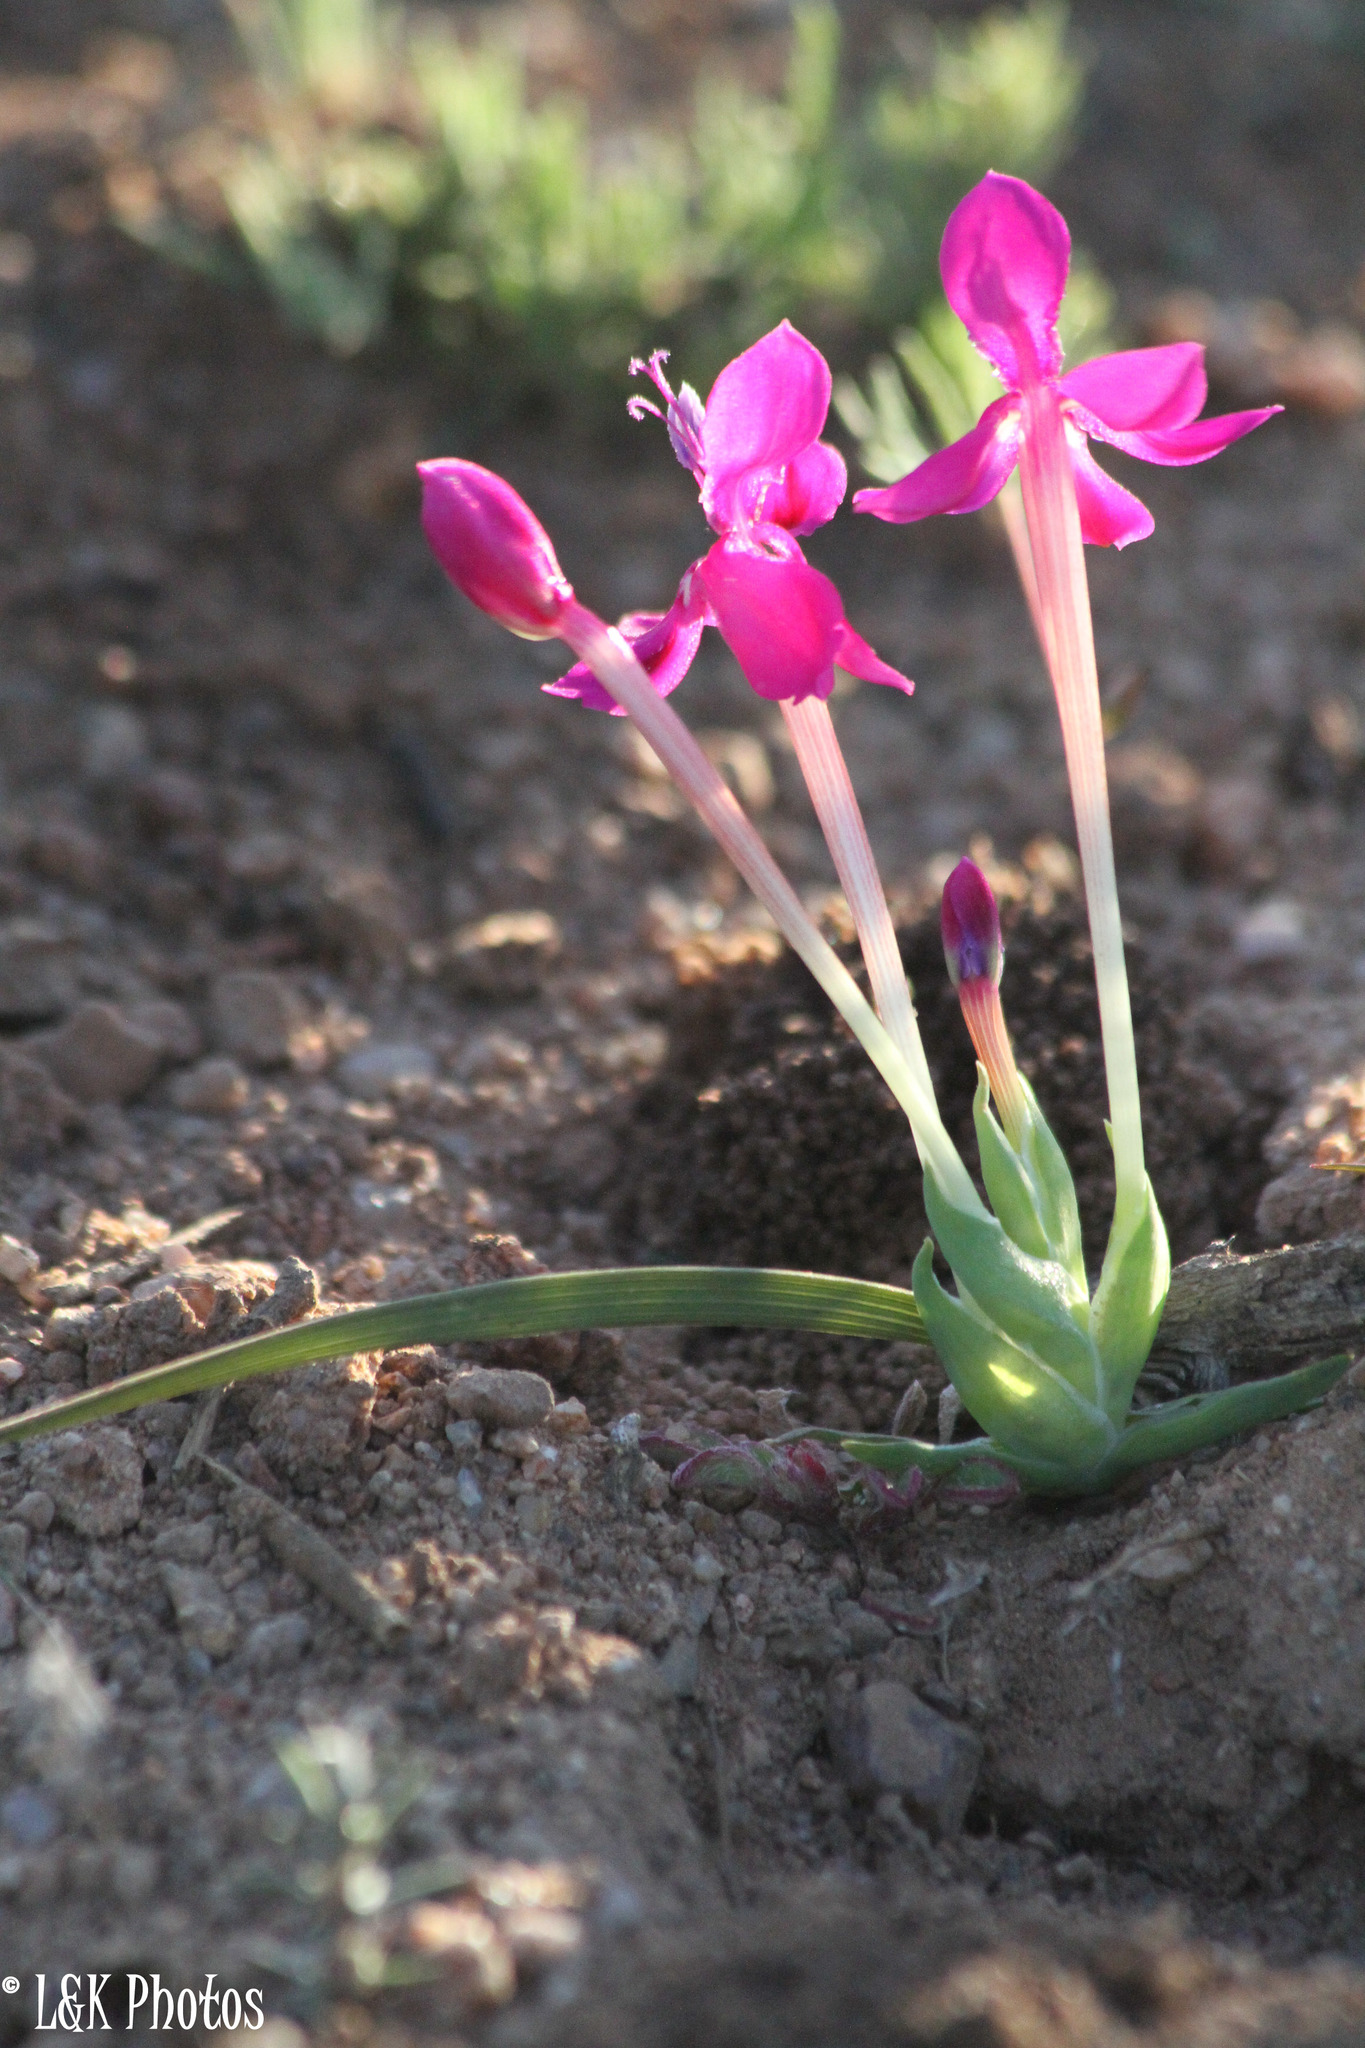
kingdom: Plantae
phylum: Tracheophyta
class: Liliopsida
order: Asparagales
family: Iridaceae
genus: Lapeirousia
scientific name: Lapeirousia silenoides
